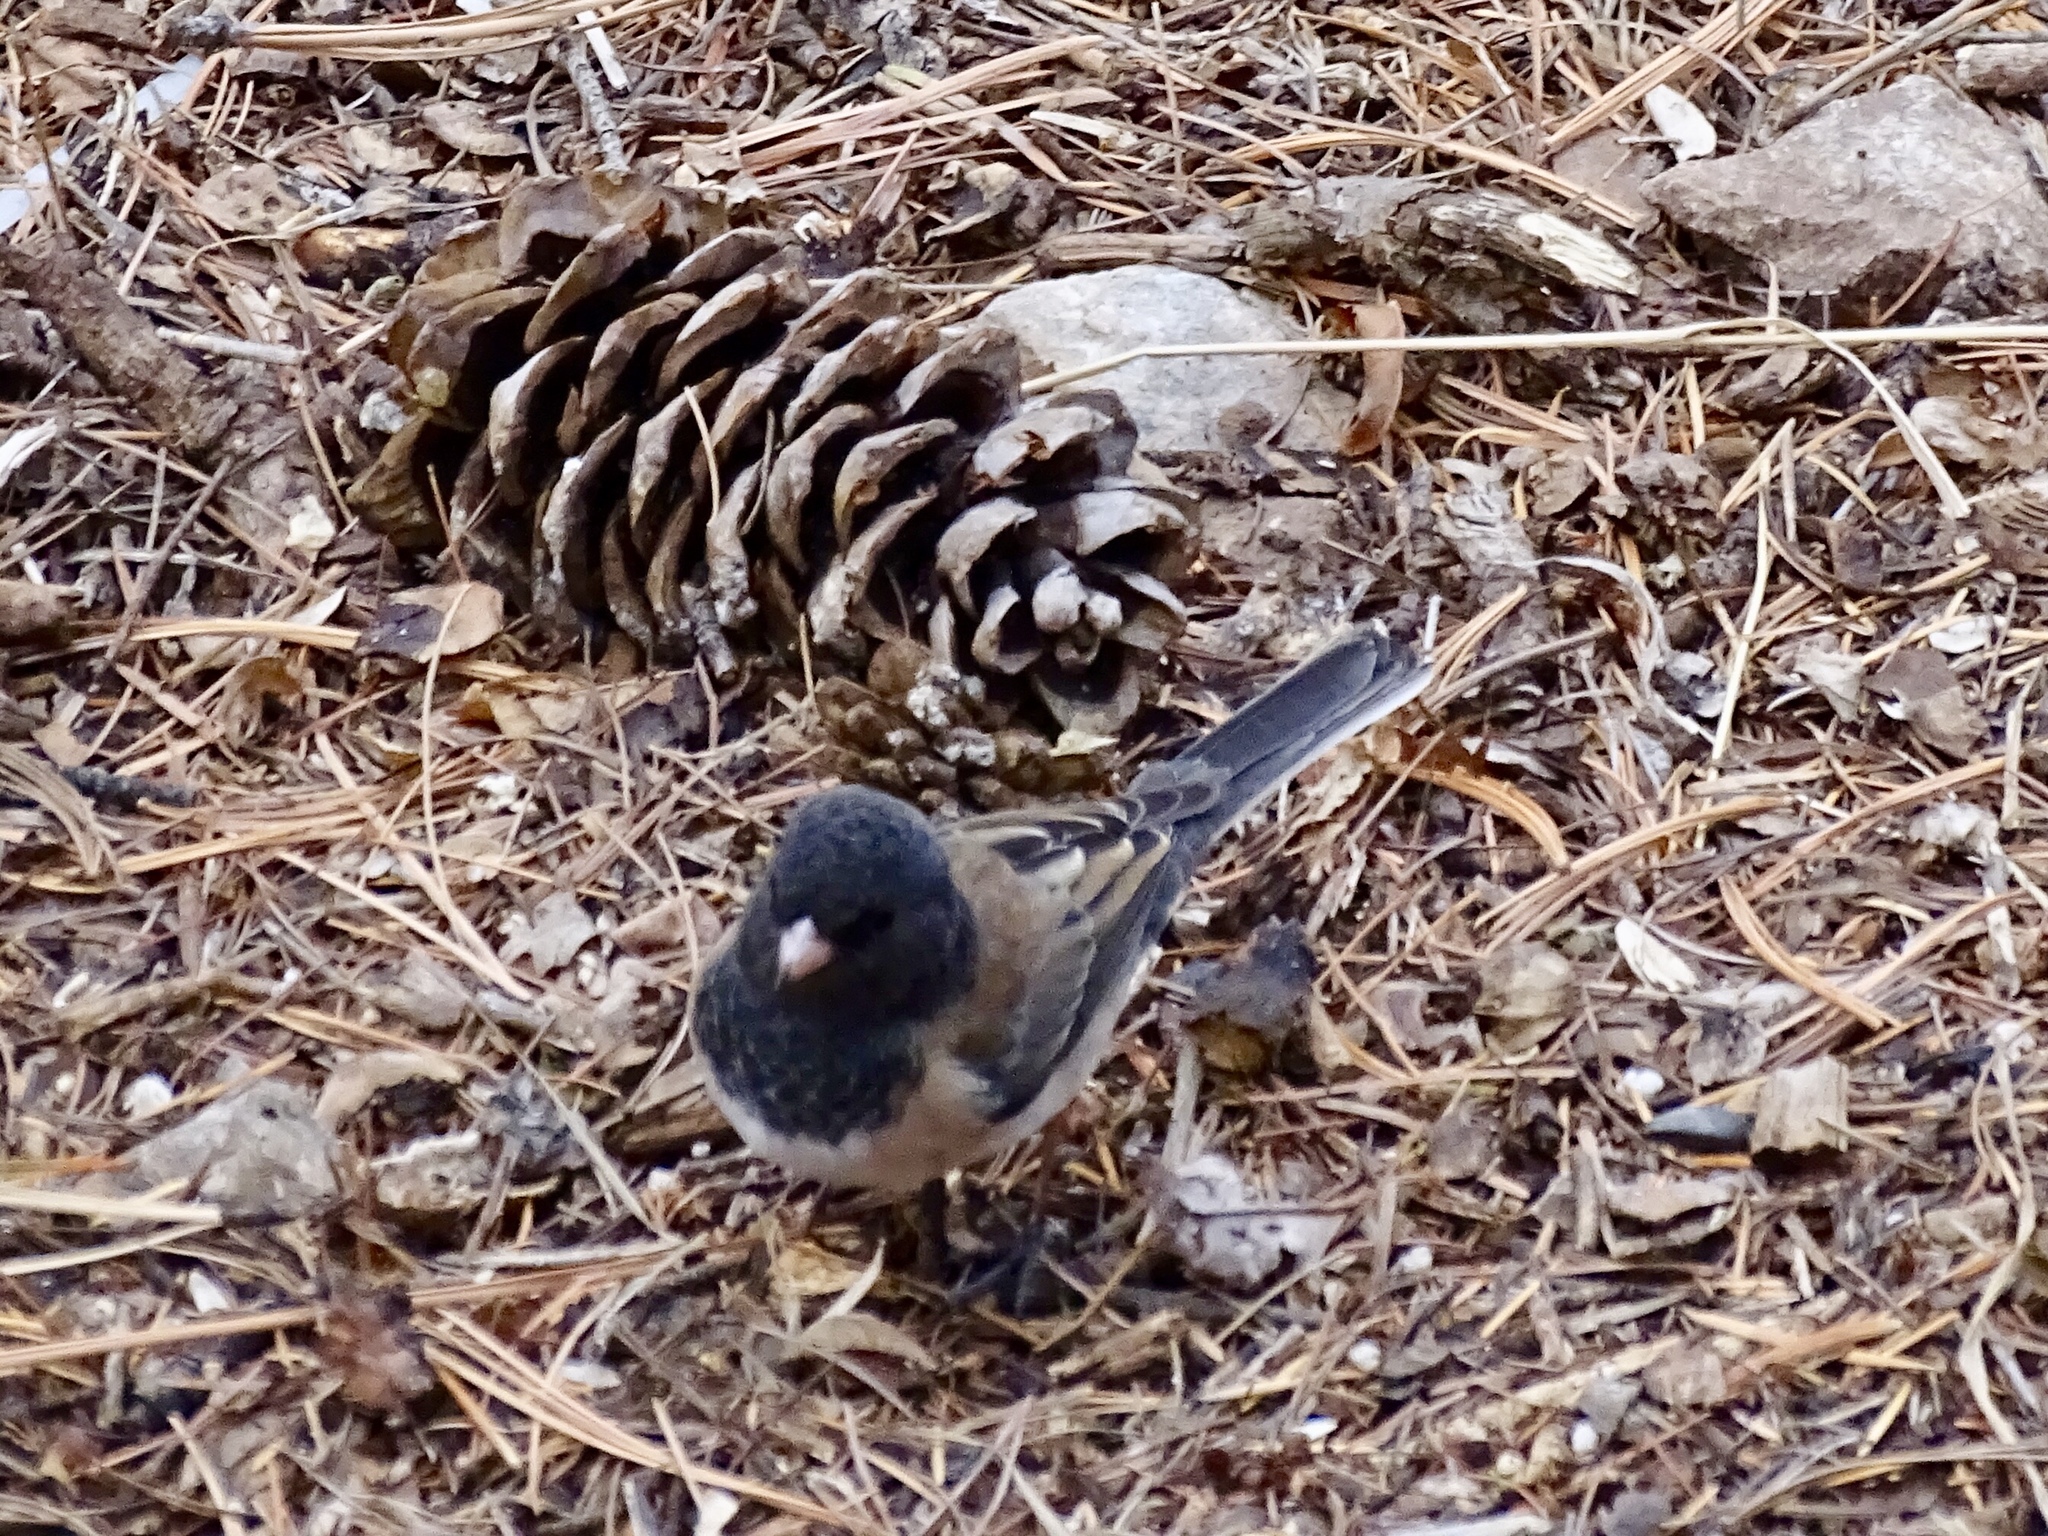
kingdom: Animalia
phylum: Chordata
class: Aves
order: Passeriformes
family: Passerellidae
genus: Junco
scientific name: Junco hyemalis
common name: Dark-eyed junco
